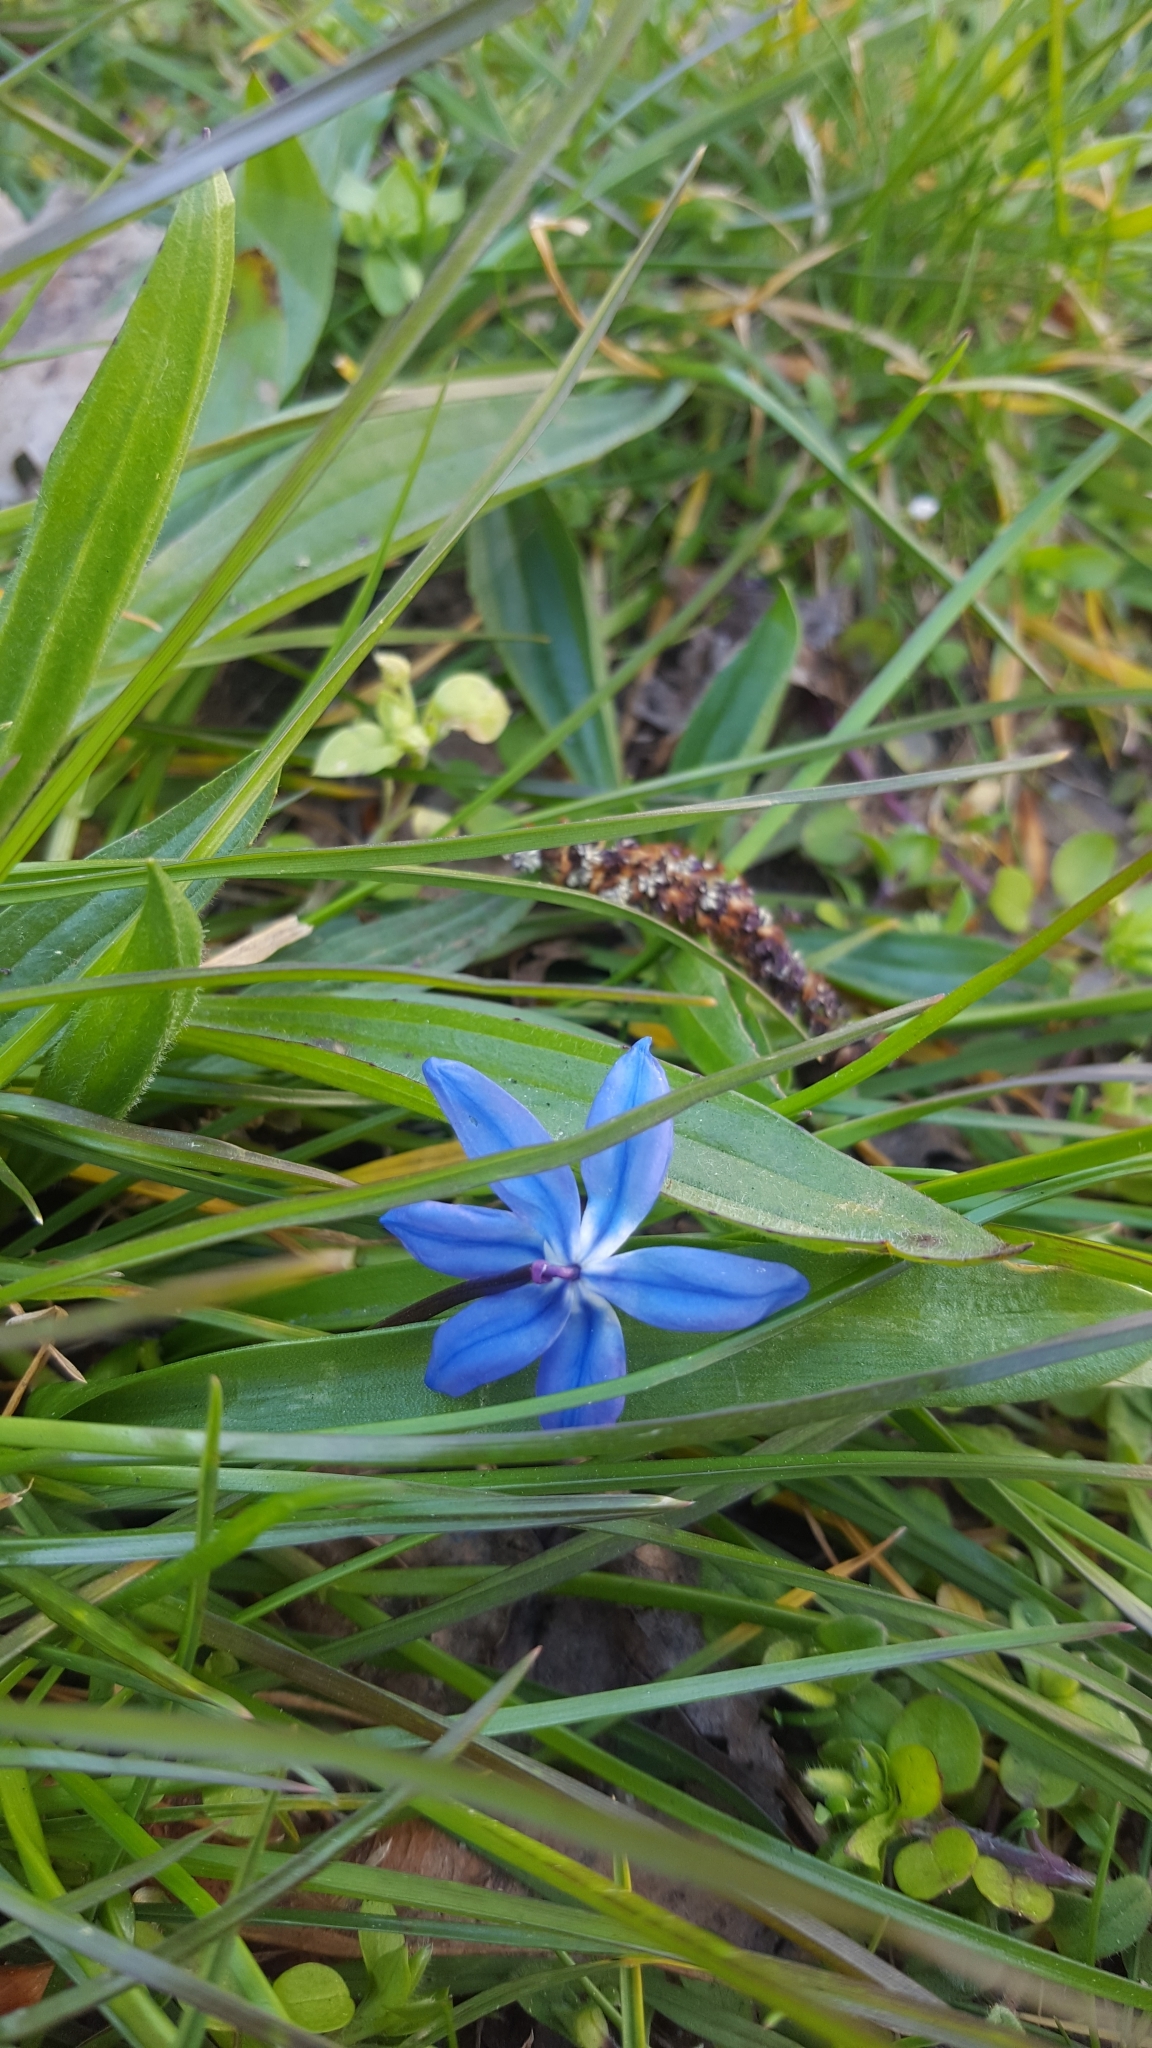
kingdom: Plantae
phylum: Tracheophyta
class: Liliopsida
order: Asparagales
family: Asparagaceae
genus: Scilla
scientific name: Scilla siberica
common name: Siberian squill
